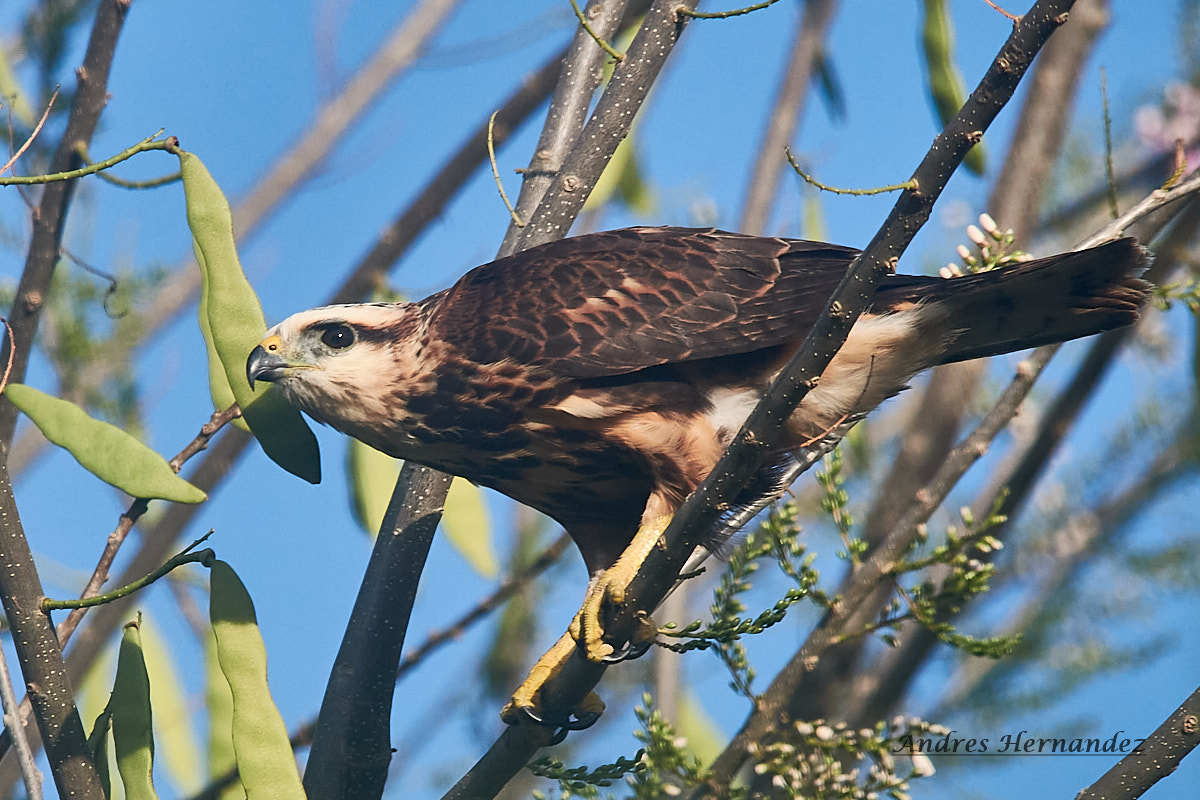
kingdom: Animalia
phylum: Chordata
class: Aves
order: Accipitriformes
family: Accipitridae
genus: Buteo
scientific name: Buteo nitidus
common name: Grey-lined hawk
